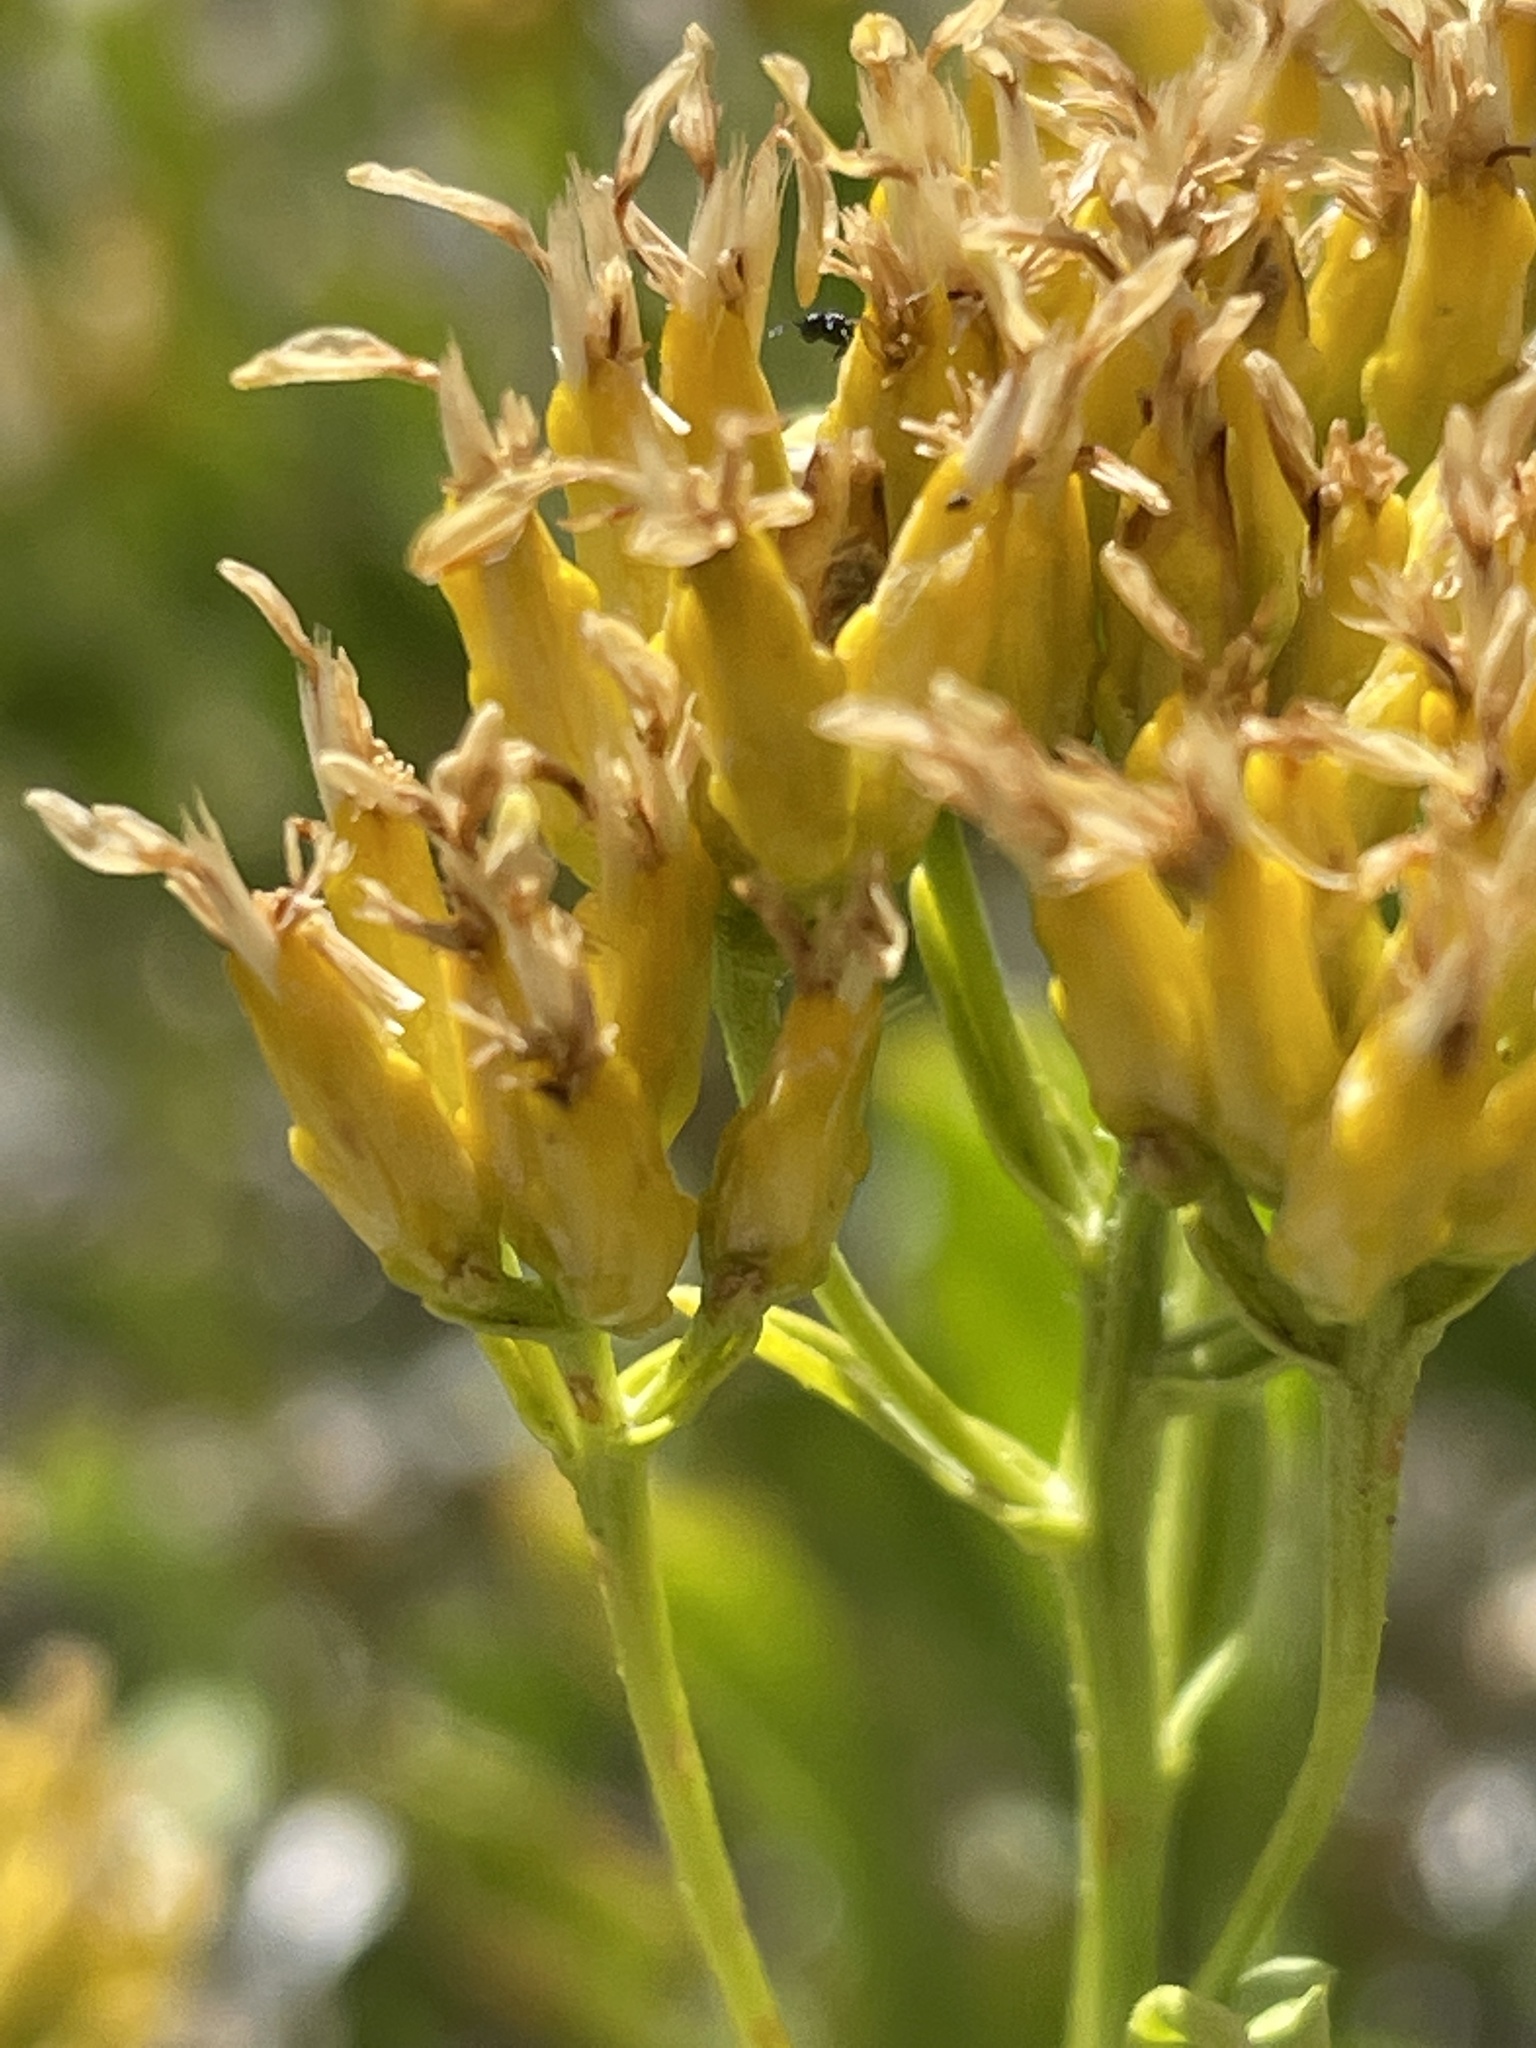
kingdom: Plantae
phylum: Tracheophyta
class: Magnoliopsida
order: Asterales
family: Asteraceae
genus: Petradoria
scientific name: Petradoria pumila
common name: Rock-goldenrod
